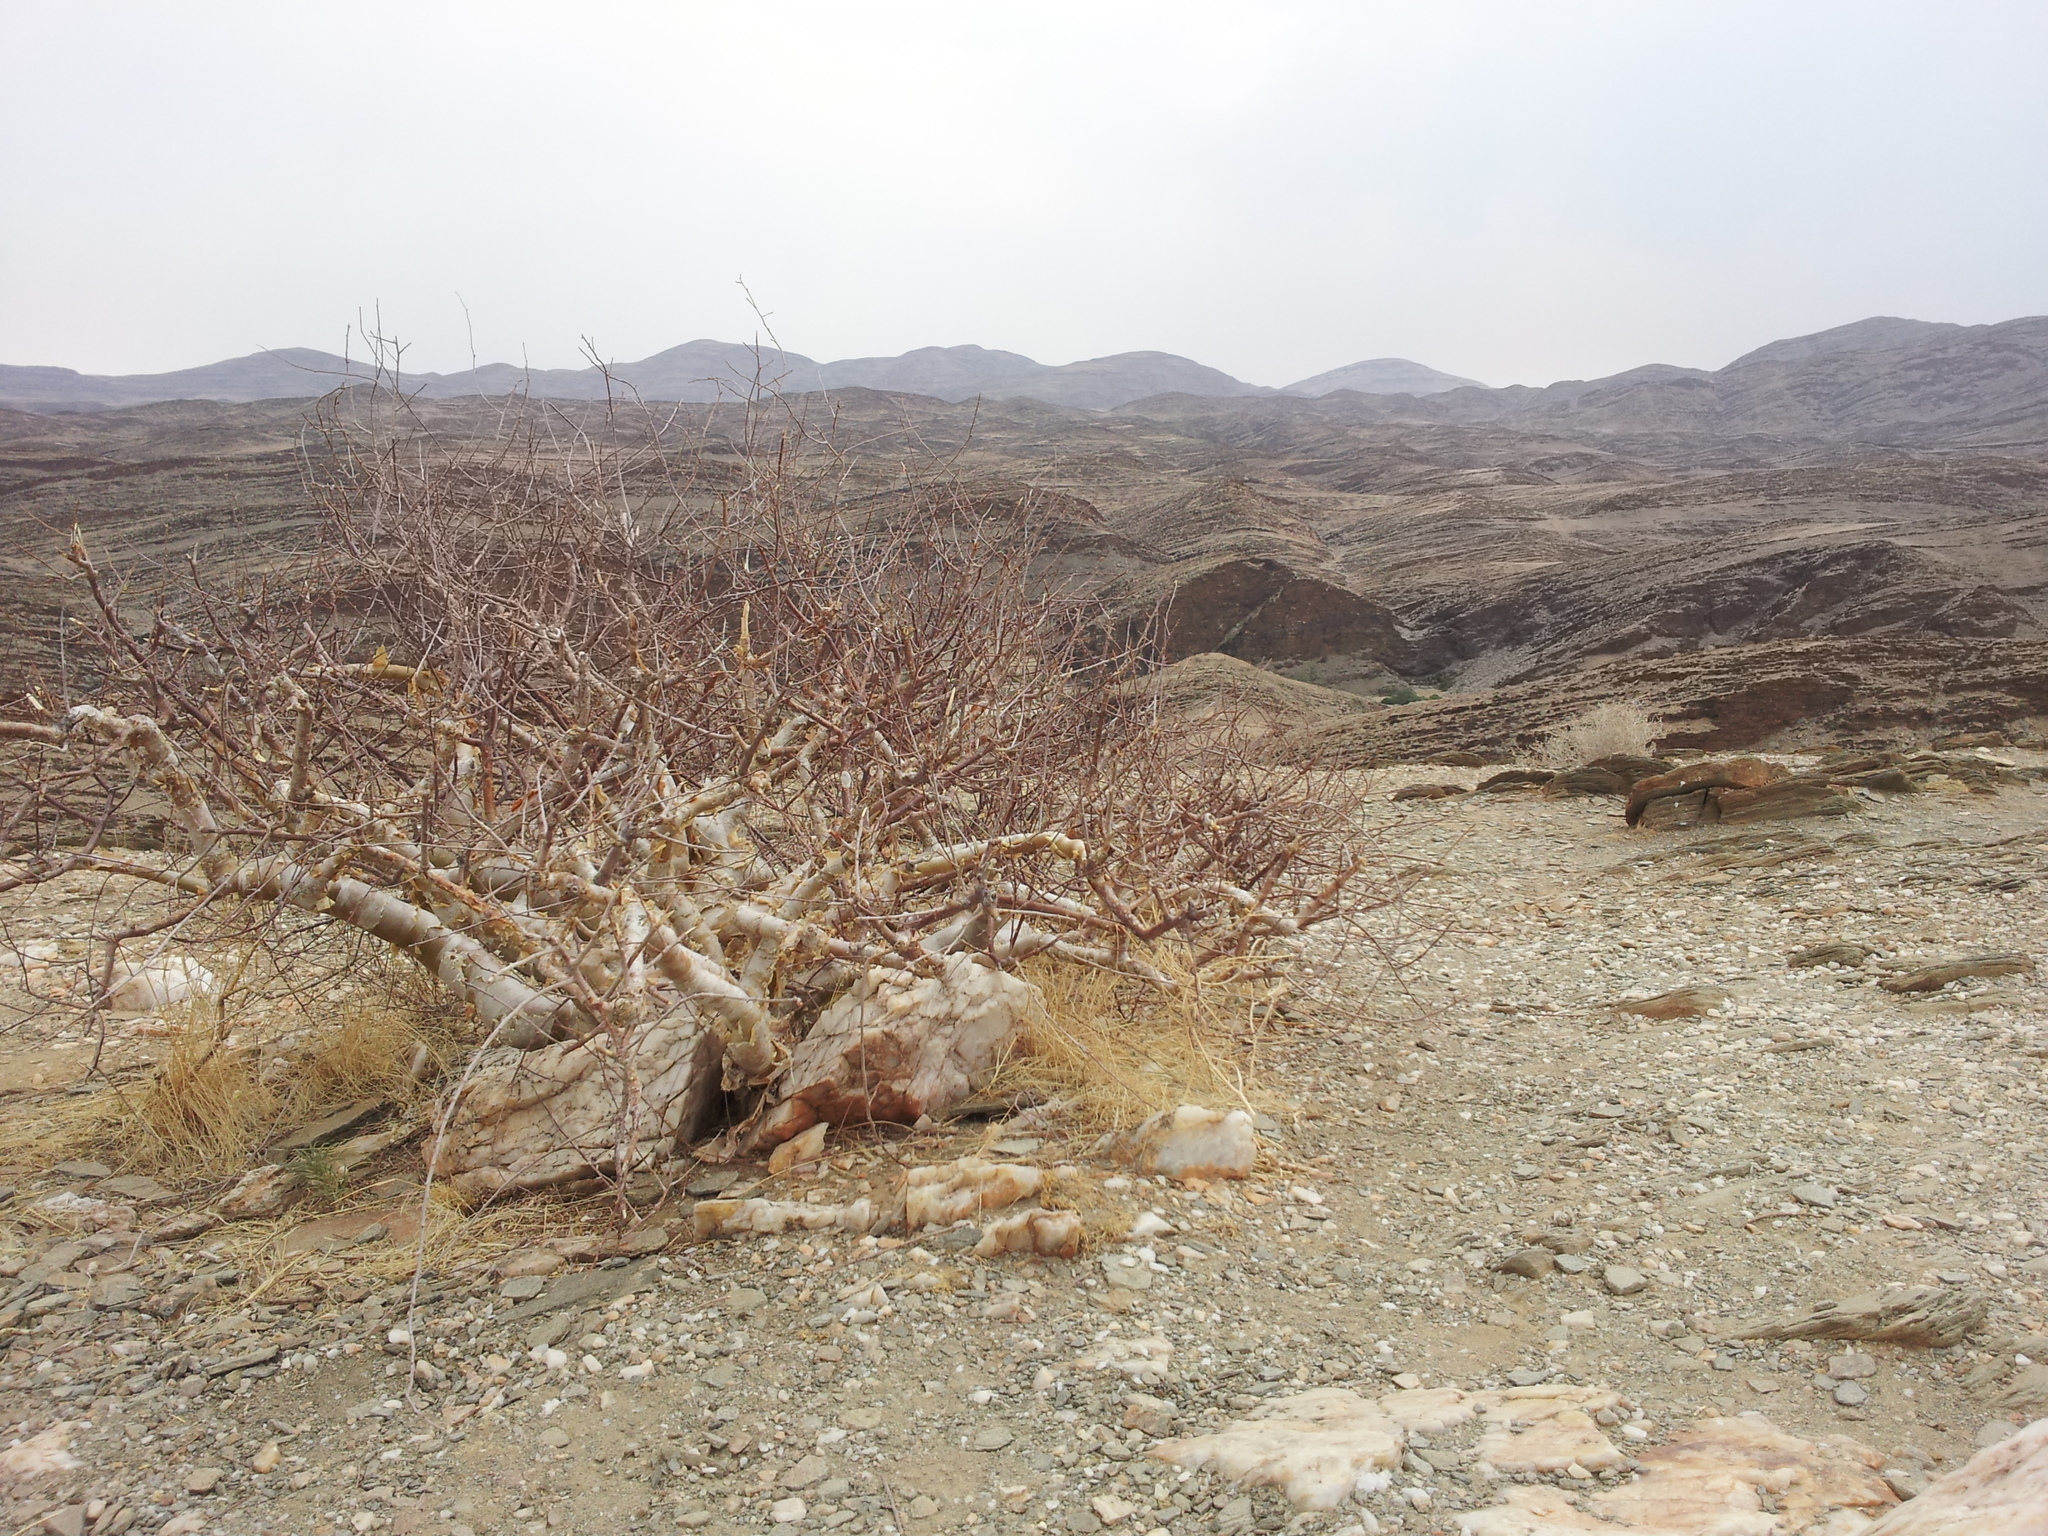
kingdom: Plantae
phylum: Tracheophyta
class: Magnoliopsida
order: Sapindales
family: Burseraceae
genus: Commiphora
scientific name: Commiphora virgata
